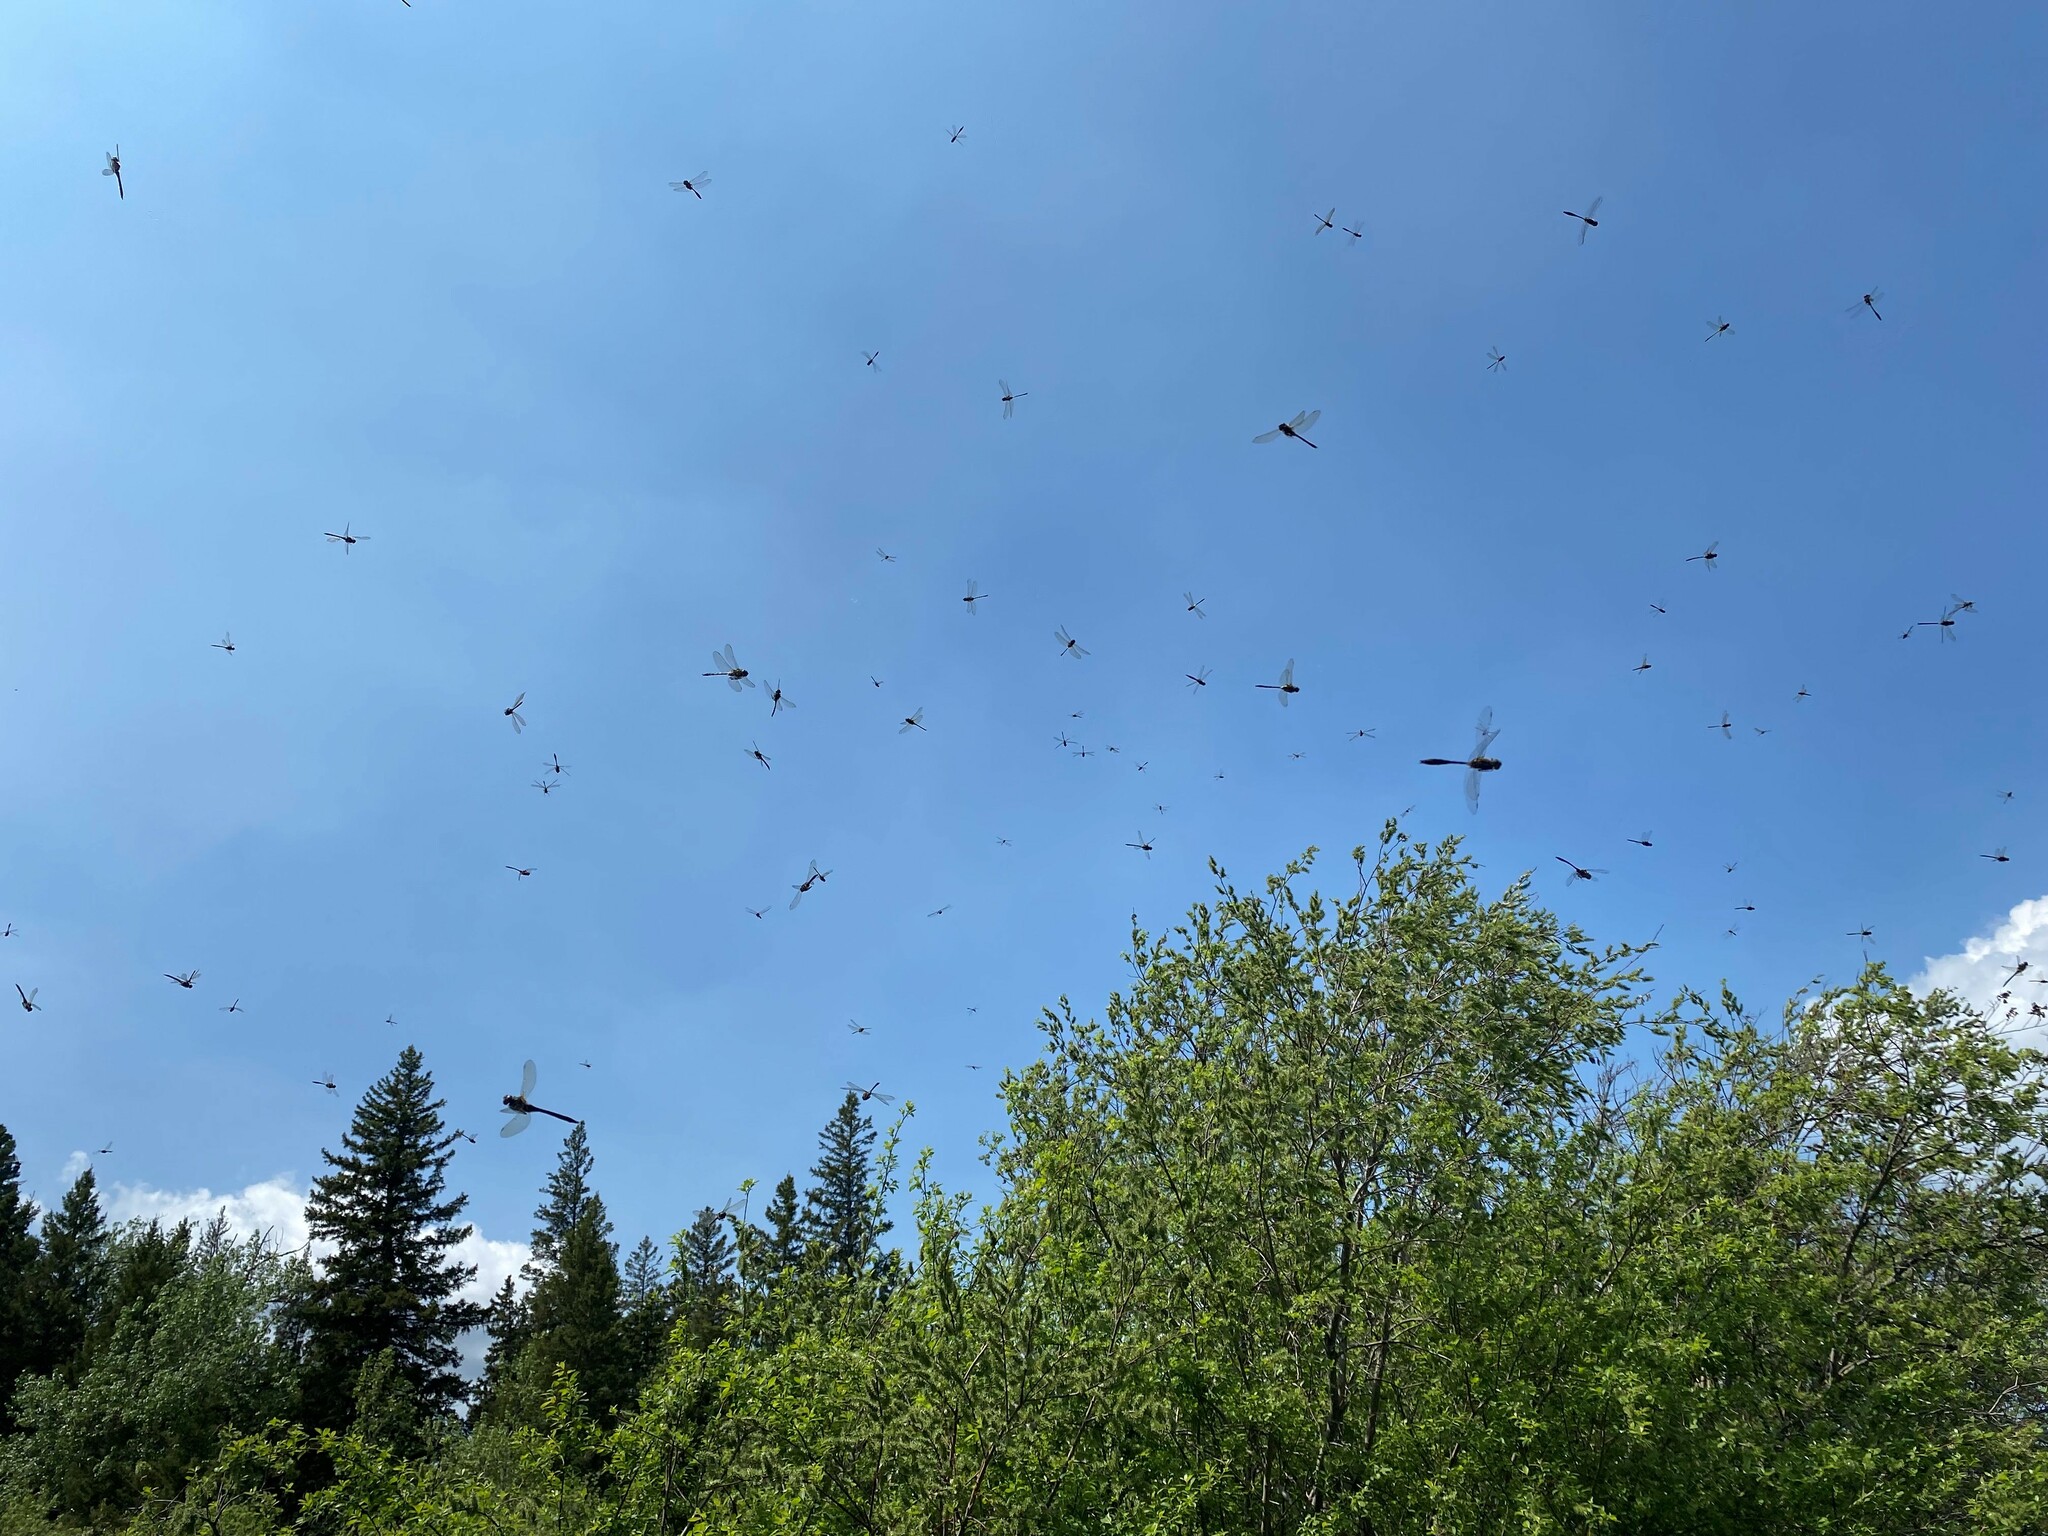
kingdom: Animalia
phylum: Arthropoda
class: Insecta
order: Odonata
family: Corduliidae
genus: Cordulia
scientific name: Cordulia shurtleffii
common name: American emerald
